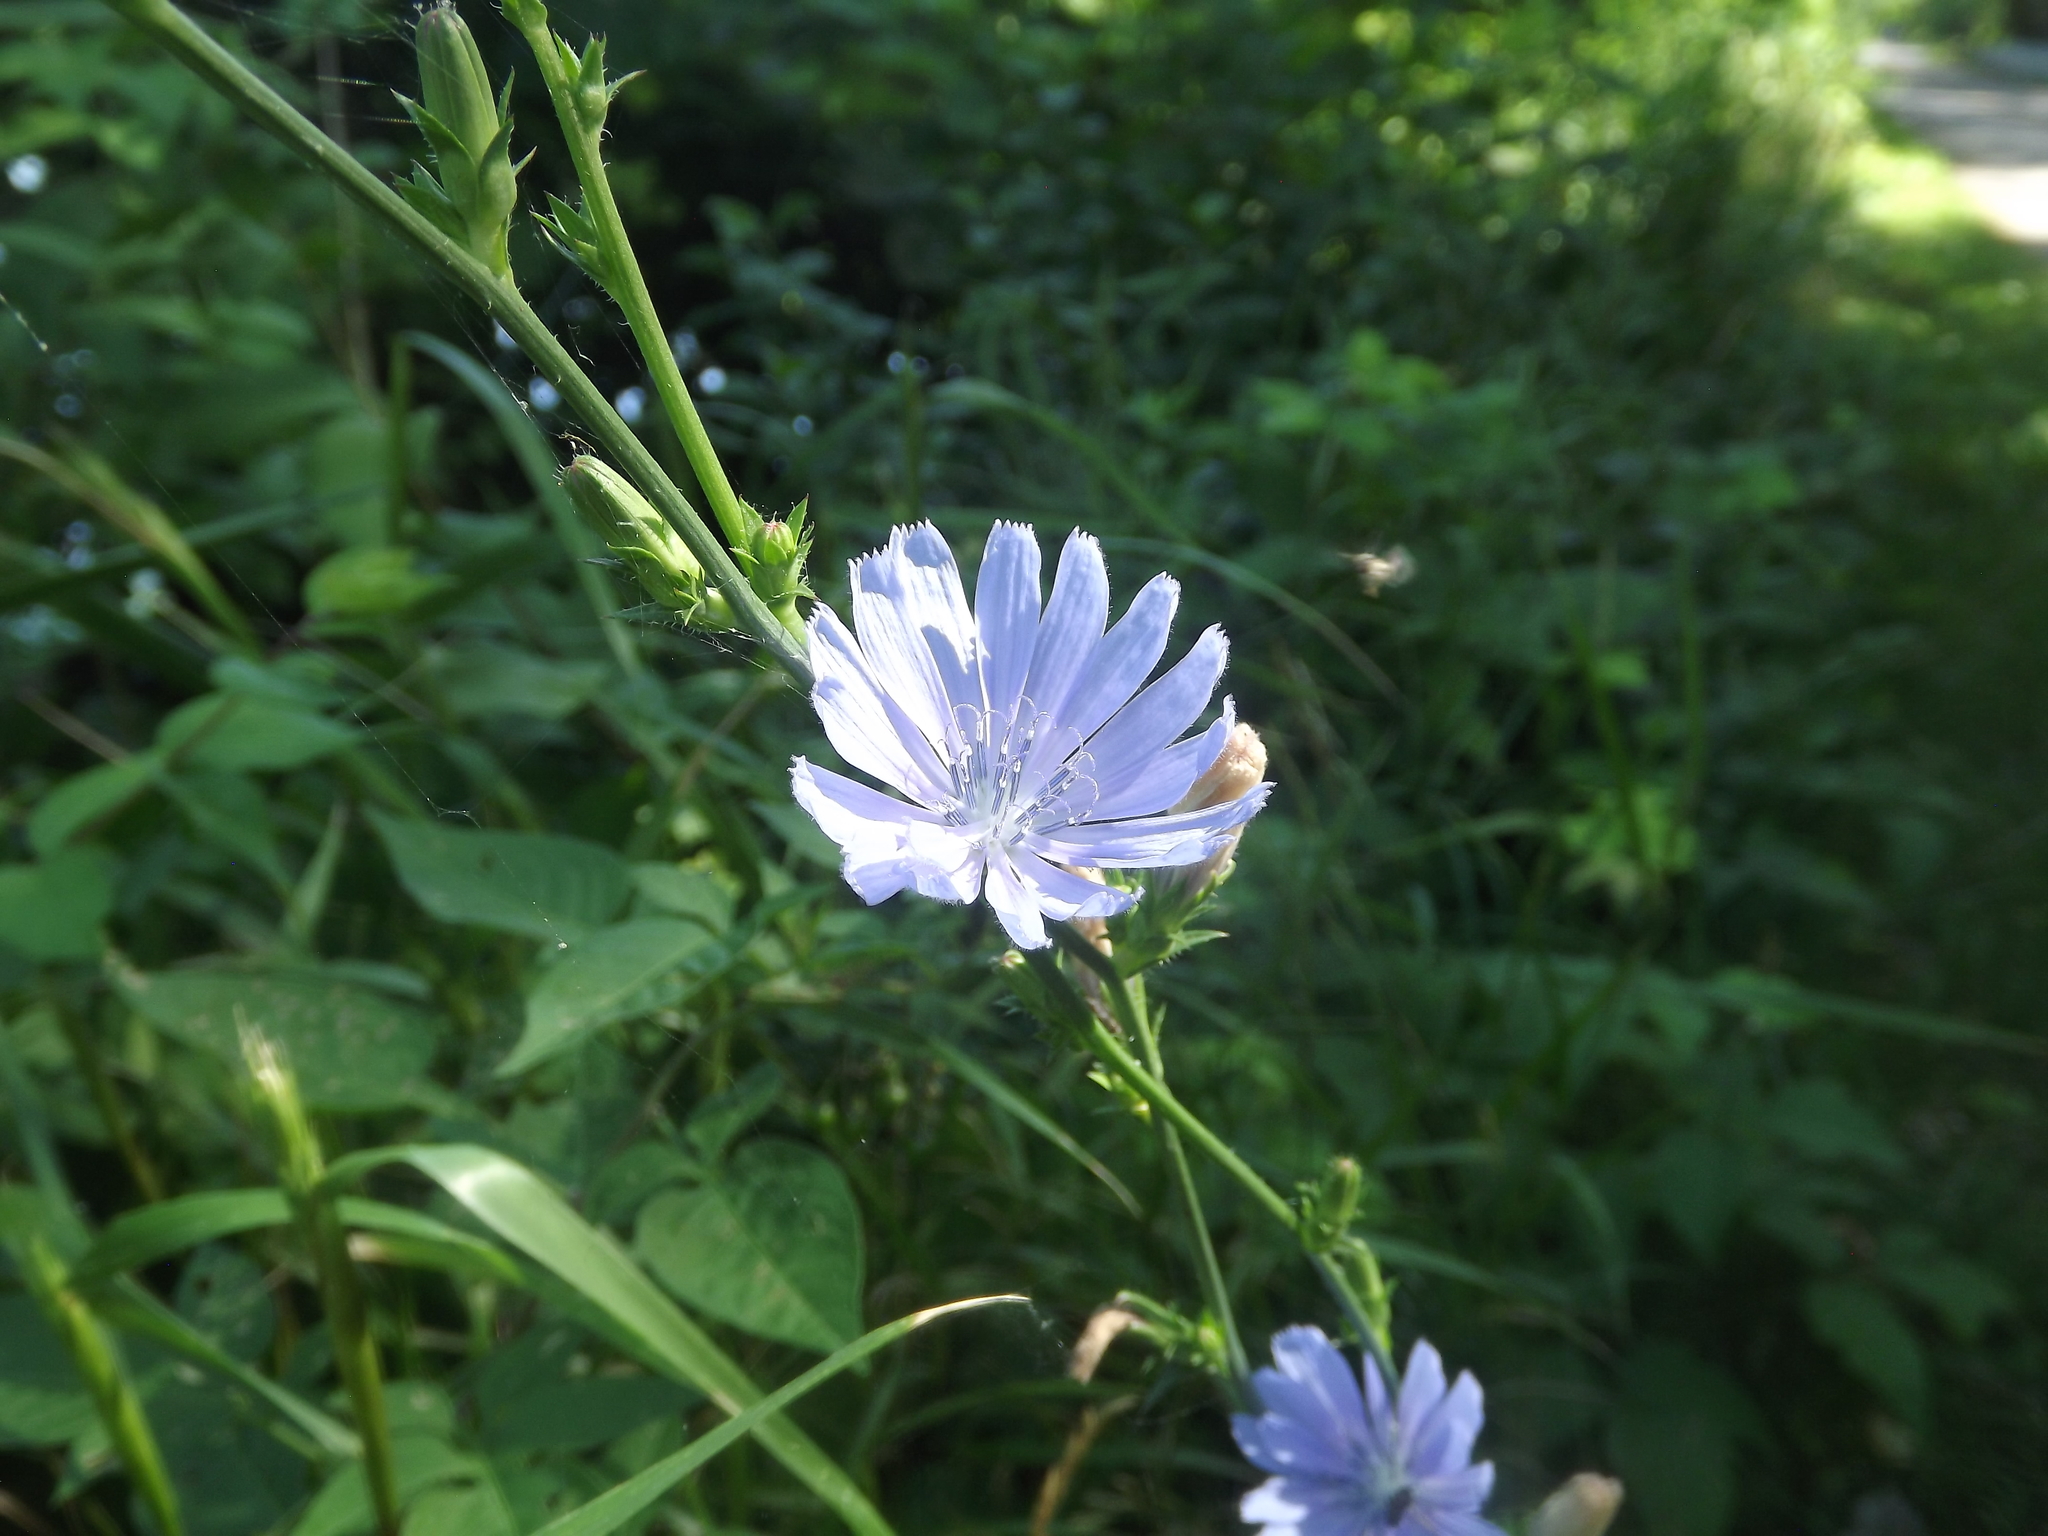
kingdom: Plantae
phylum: Tracheophyta
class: Magnoliopsida
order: Asterales
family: Asteraceae
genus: Cichorium
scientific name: Cichorium intybus
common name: Chicory
